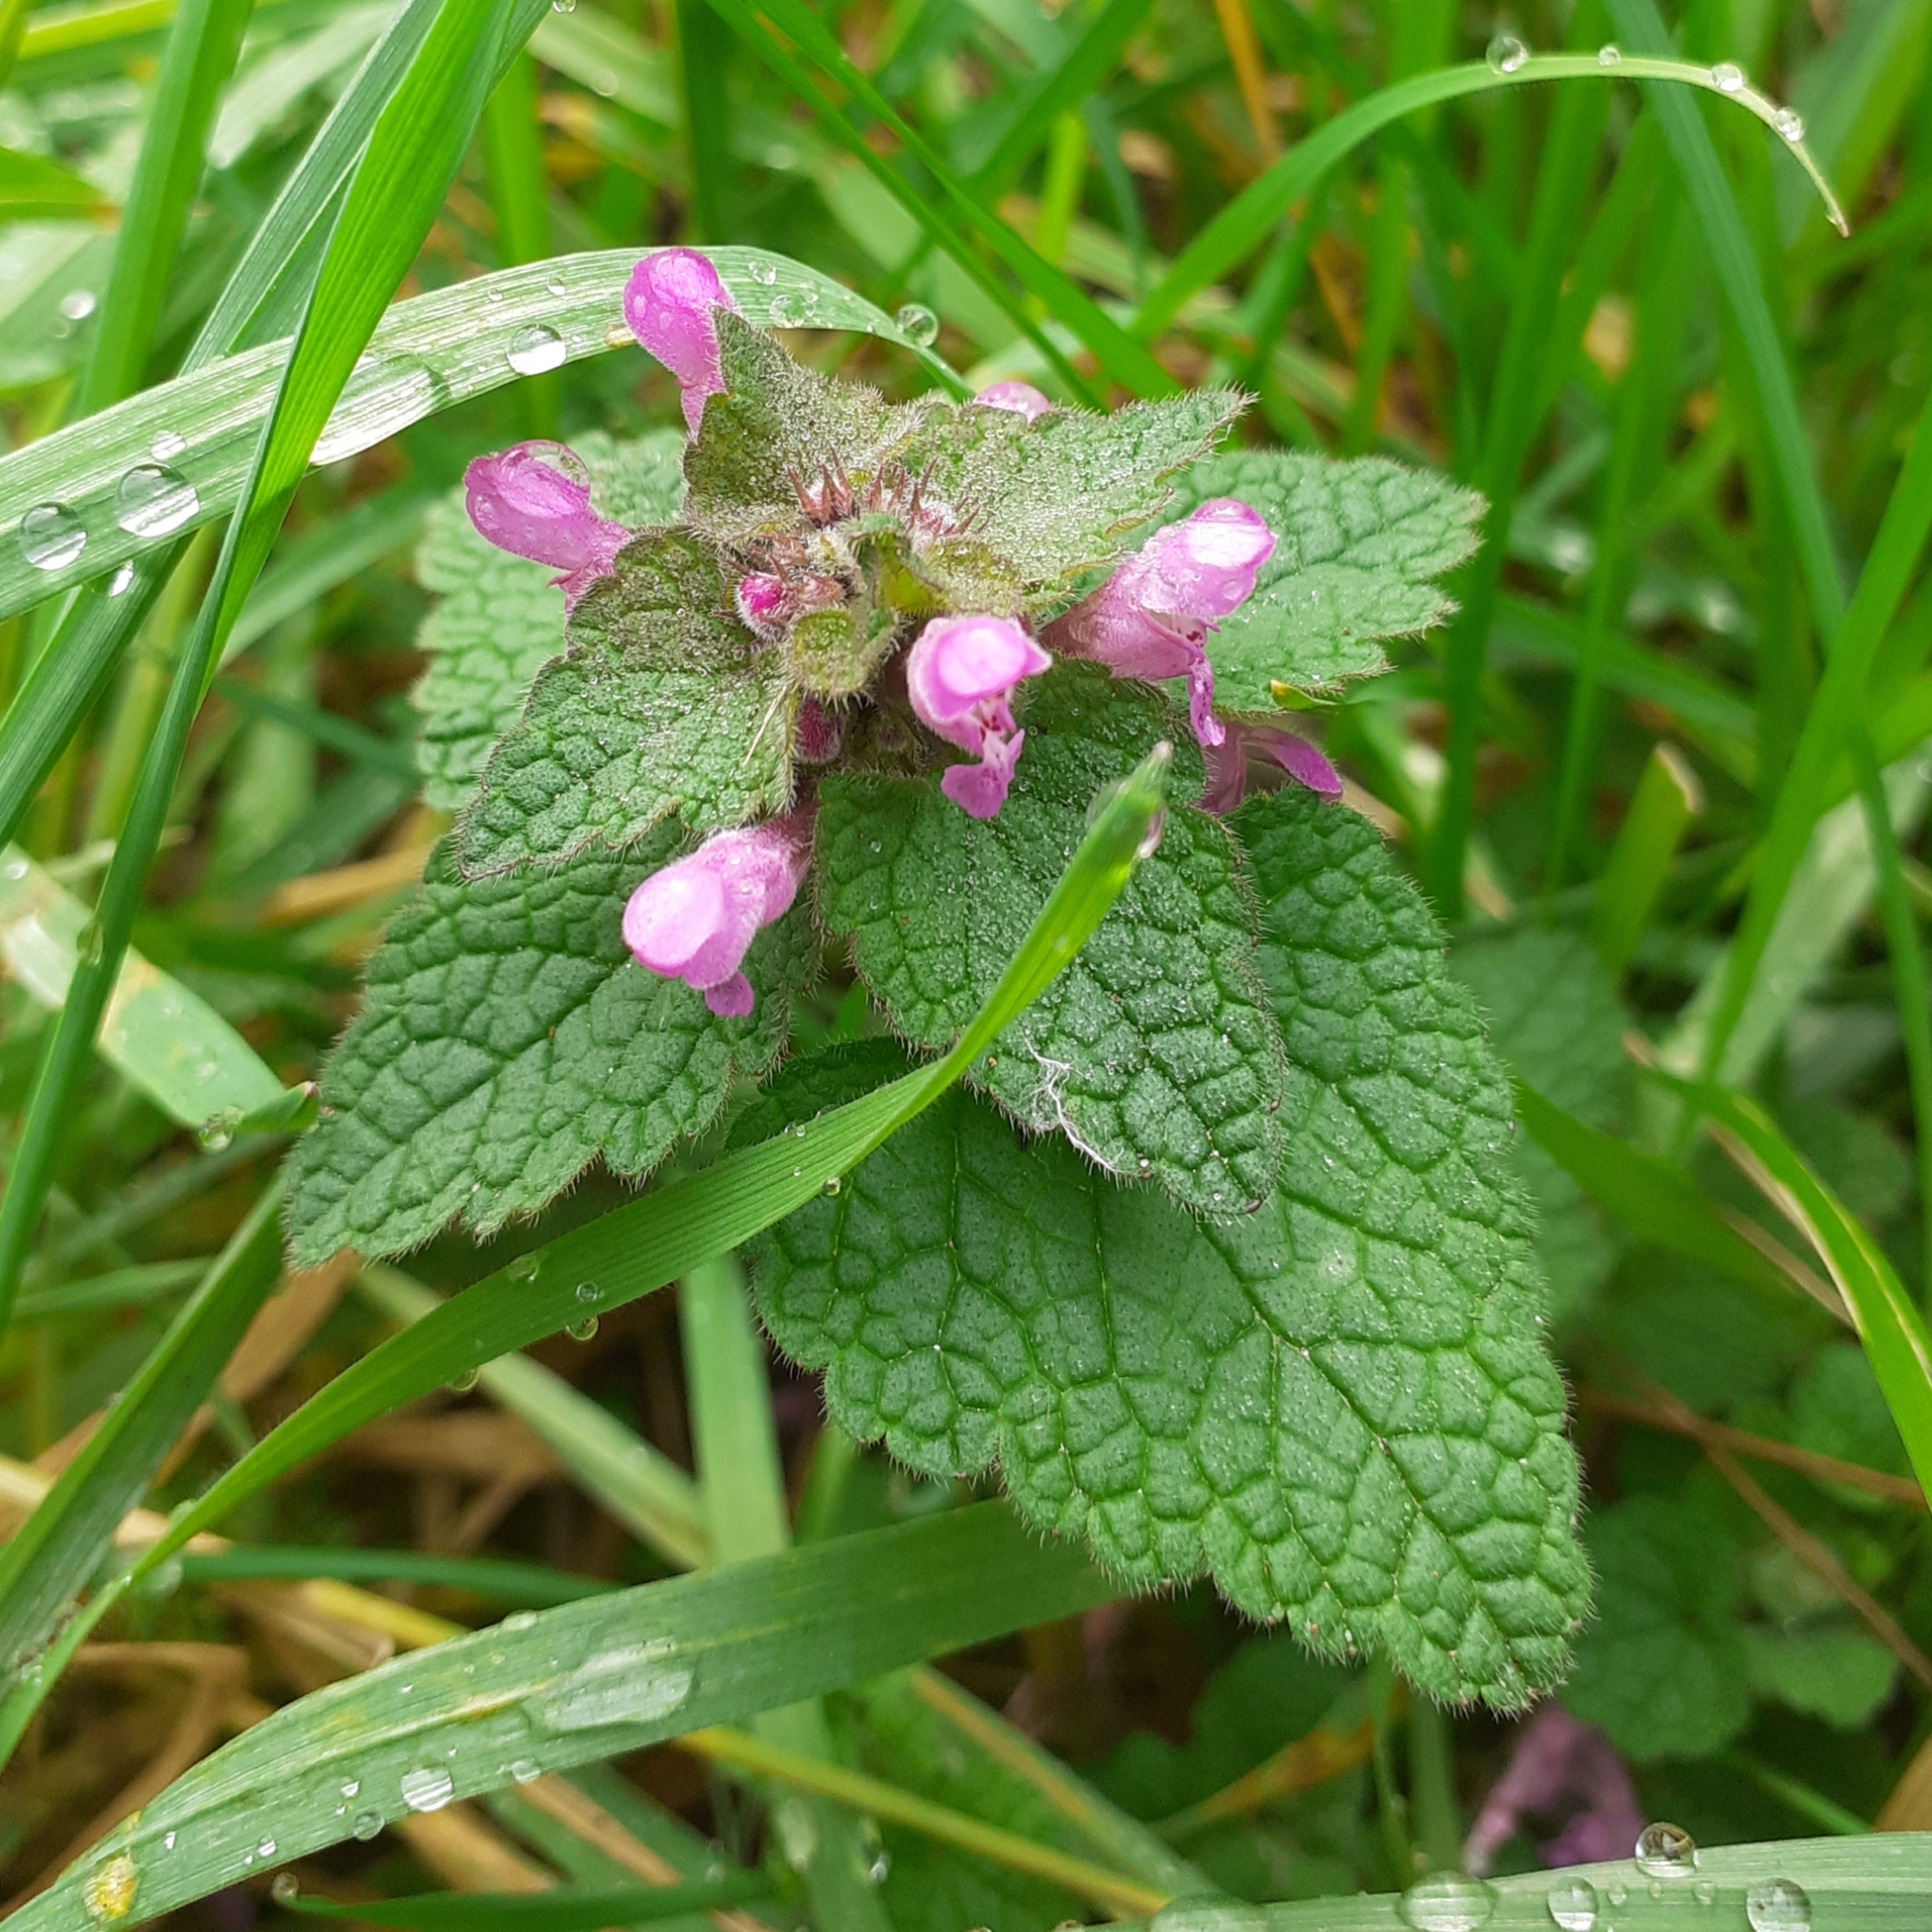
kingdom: Plantae
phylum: Tracheophyta
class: Magnoliopsida
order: Lamiales
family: Lamiaceae
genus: Lamium
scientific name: Lamium purpureum
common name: Red dead-nettle
